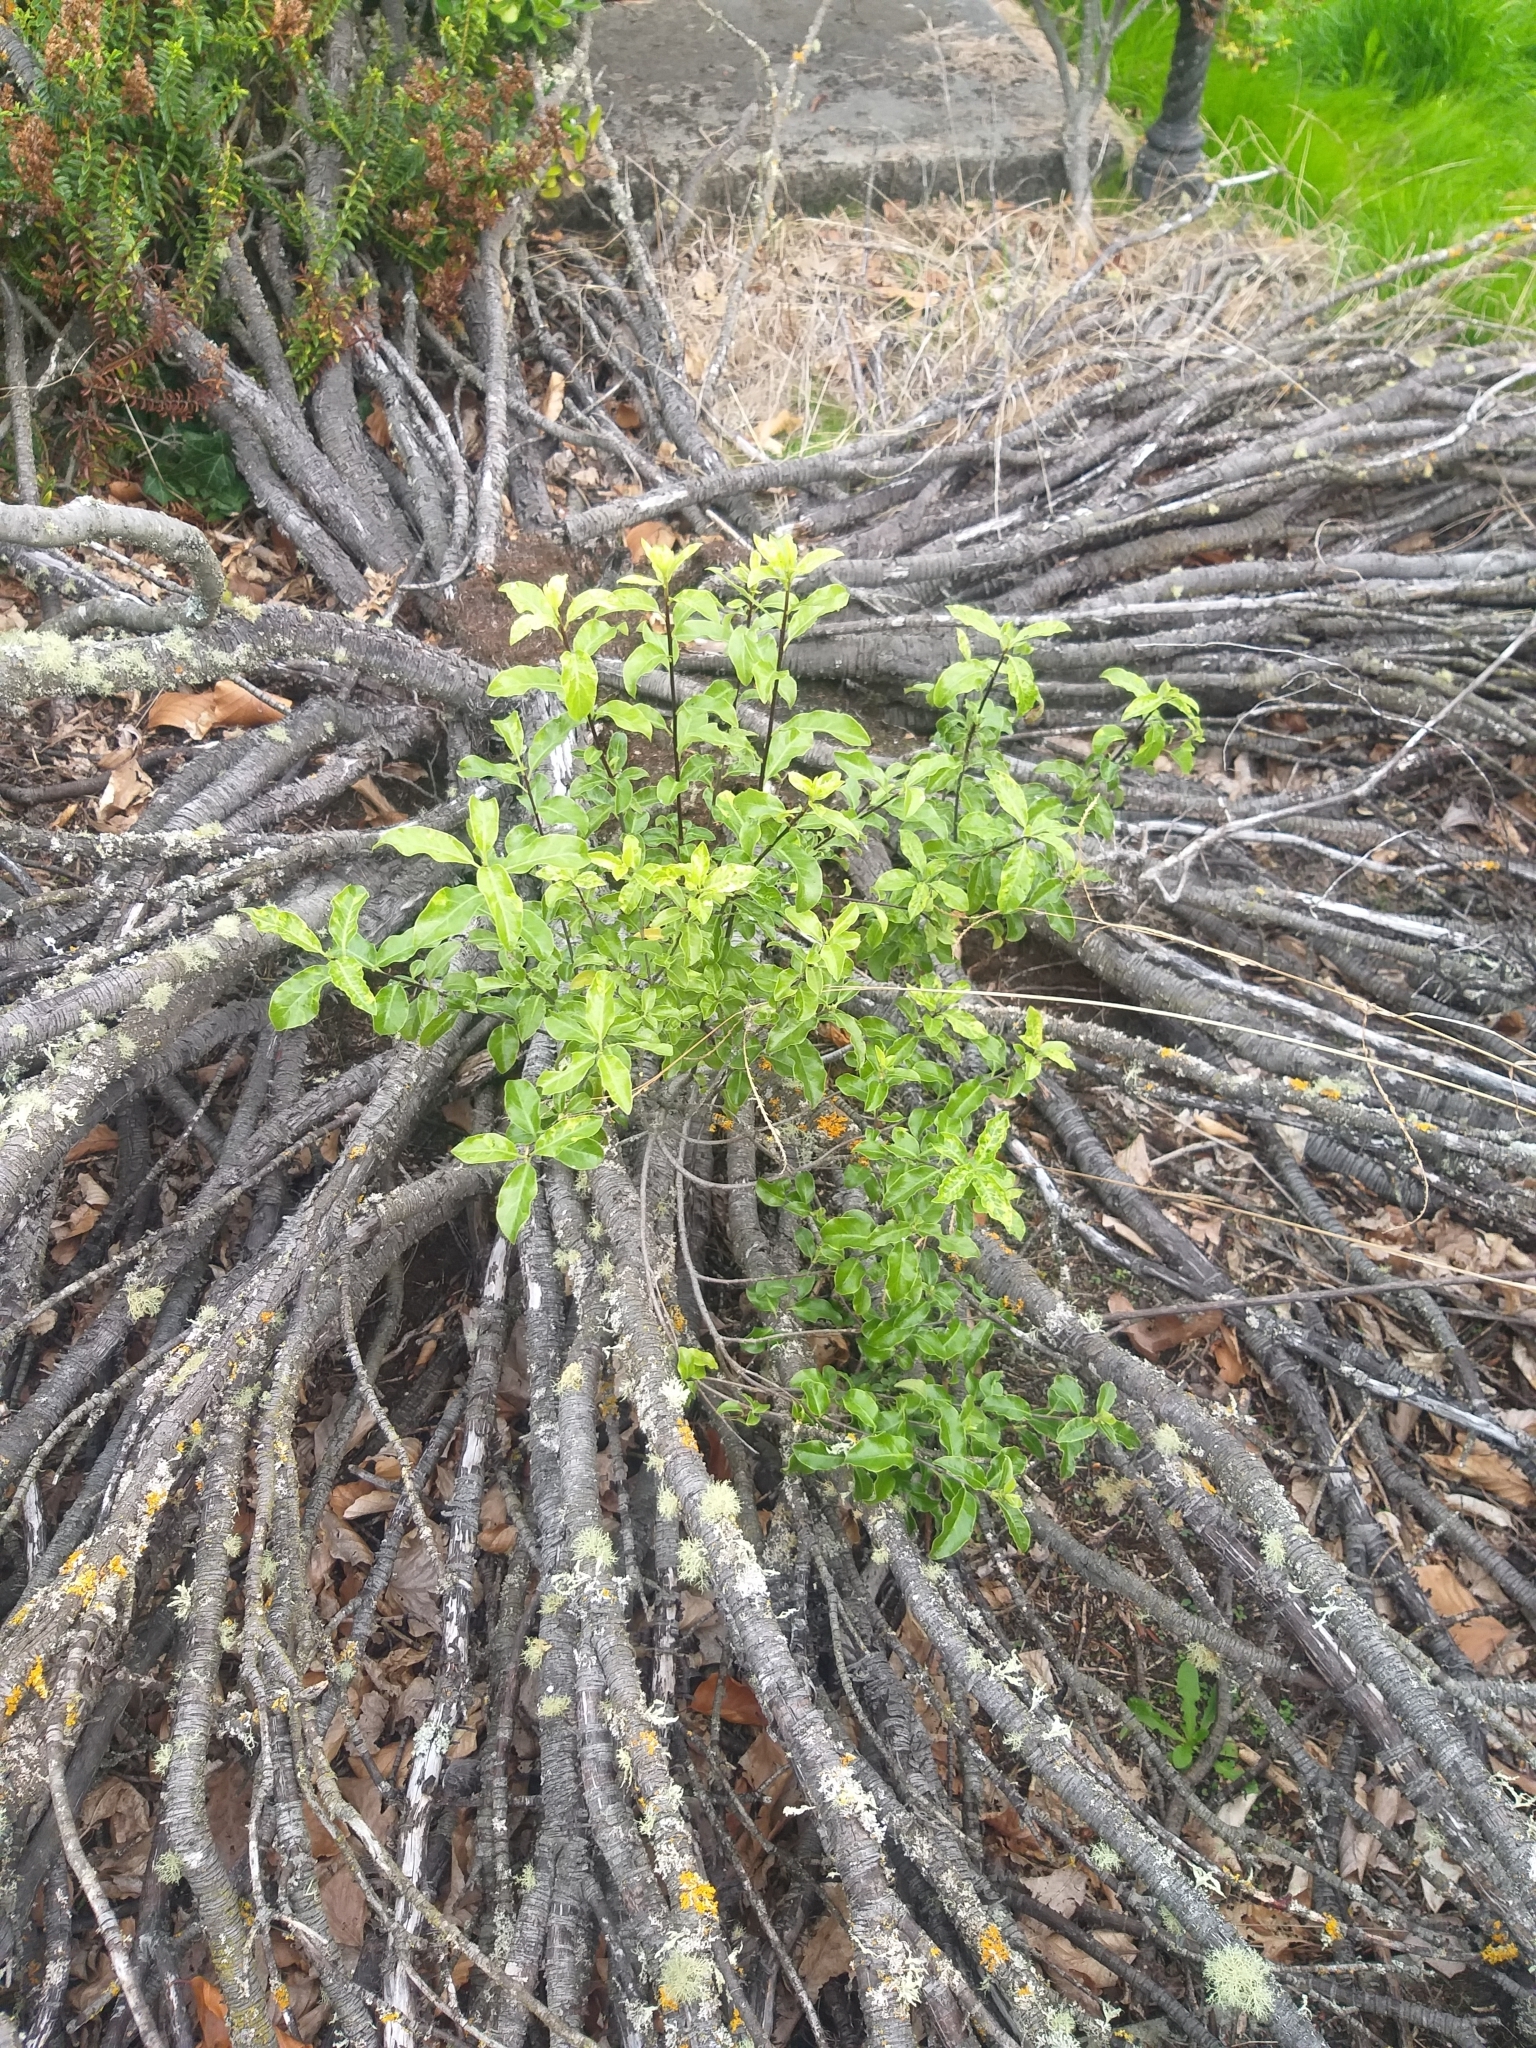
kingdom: Plantae
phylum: Tracheophyta
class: Magnoliopsida
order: Apiales
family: Pittosporaceae
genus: Pittosporum
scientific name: Pittosporum tenuifolium
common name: Kohuhu
